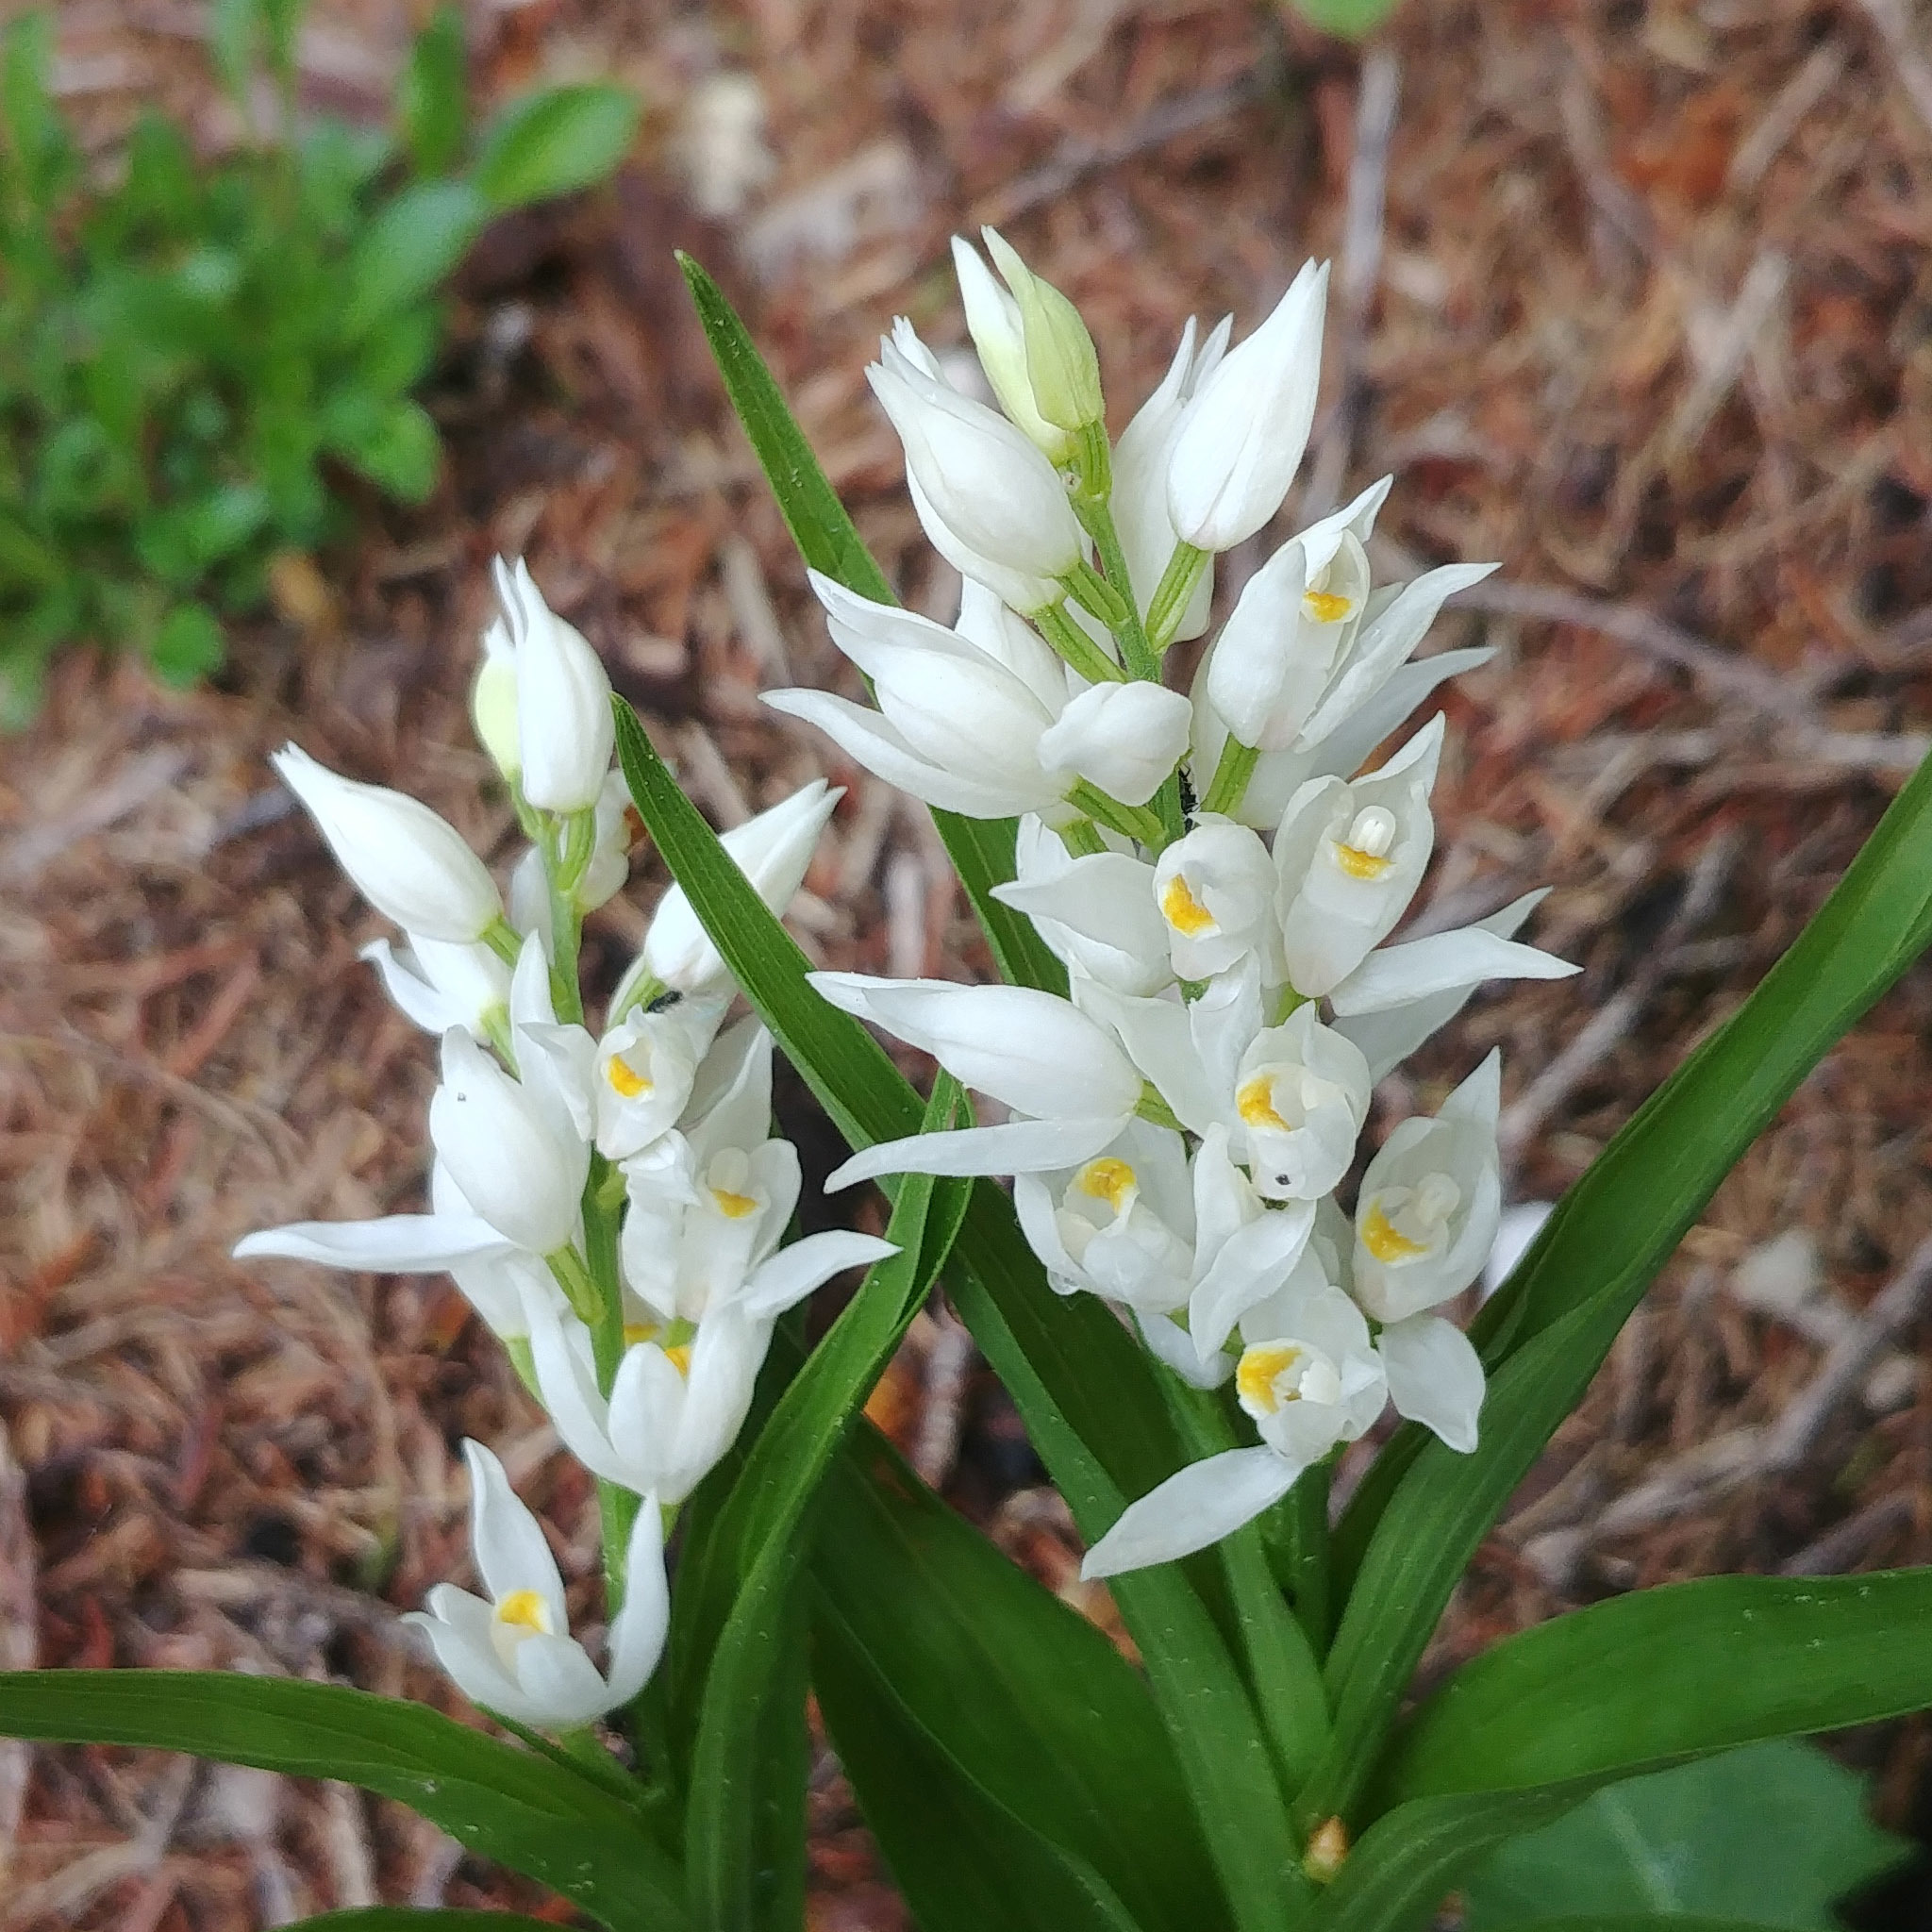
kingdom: Plantae
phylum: Tracheophyta
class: Liliopsida
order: Asparagales
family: Orchidaceae
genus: Cephalanthera
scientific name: Cephalanthera longifolia
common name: Narrow-leaved helleborine
